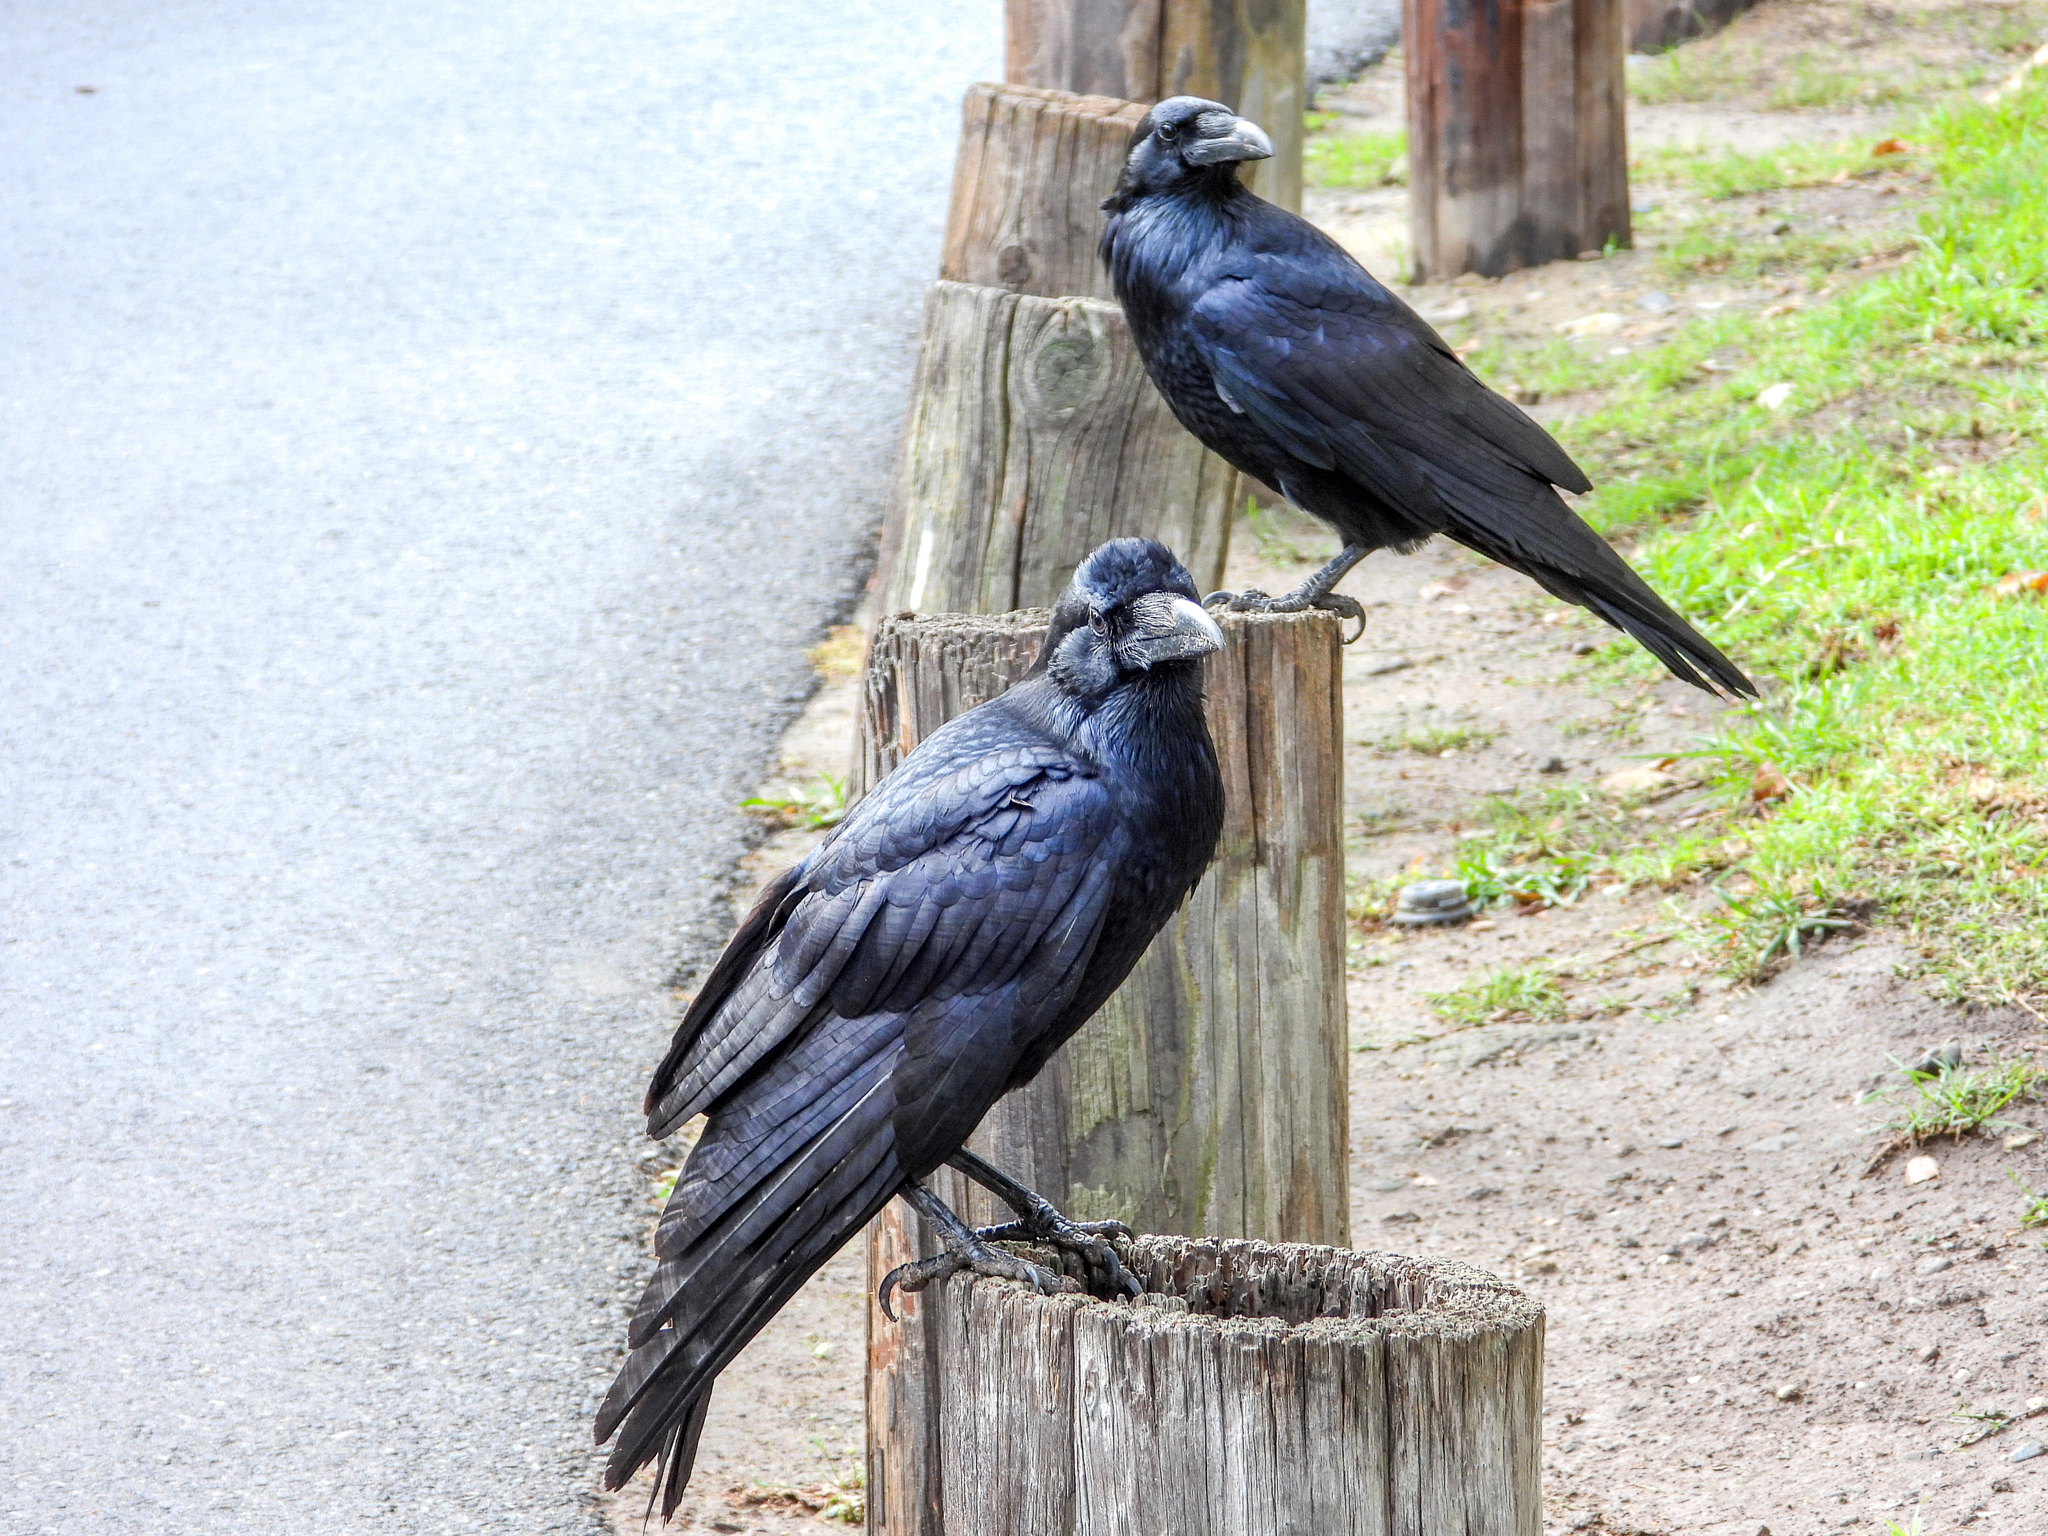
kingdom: Animalia
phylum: Chordata
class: Aves
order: Passeriformes
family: Corvidae
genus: Corvus
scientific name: Corvus corax
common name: Common raven
